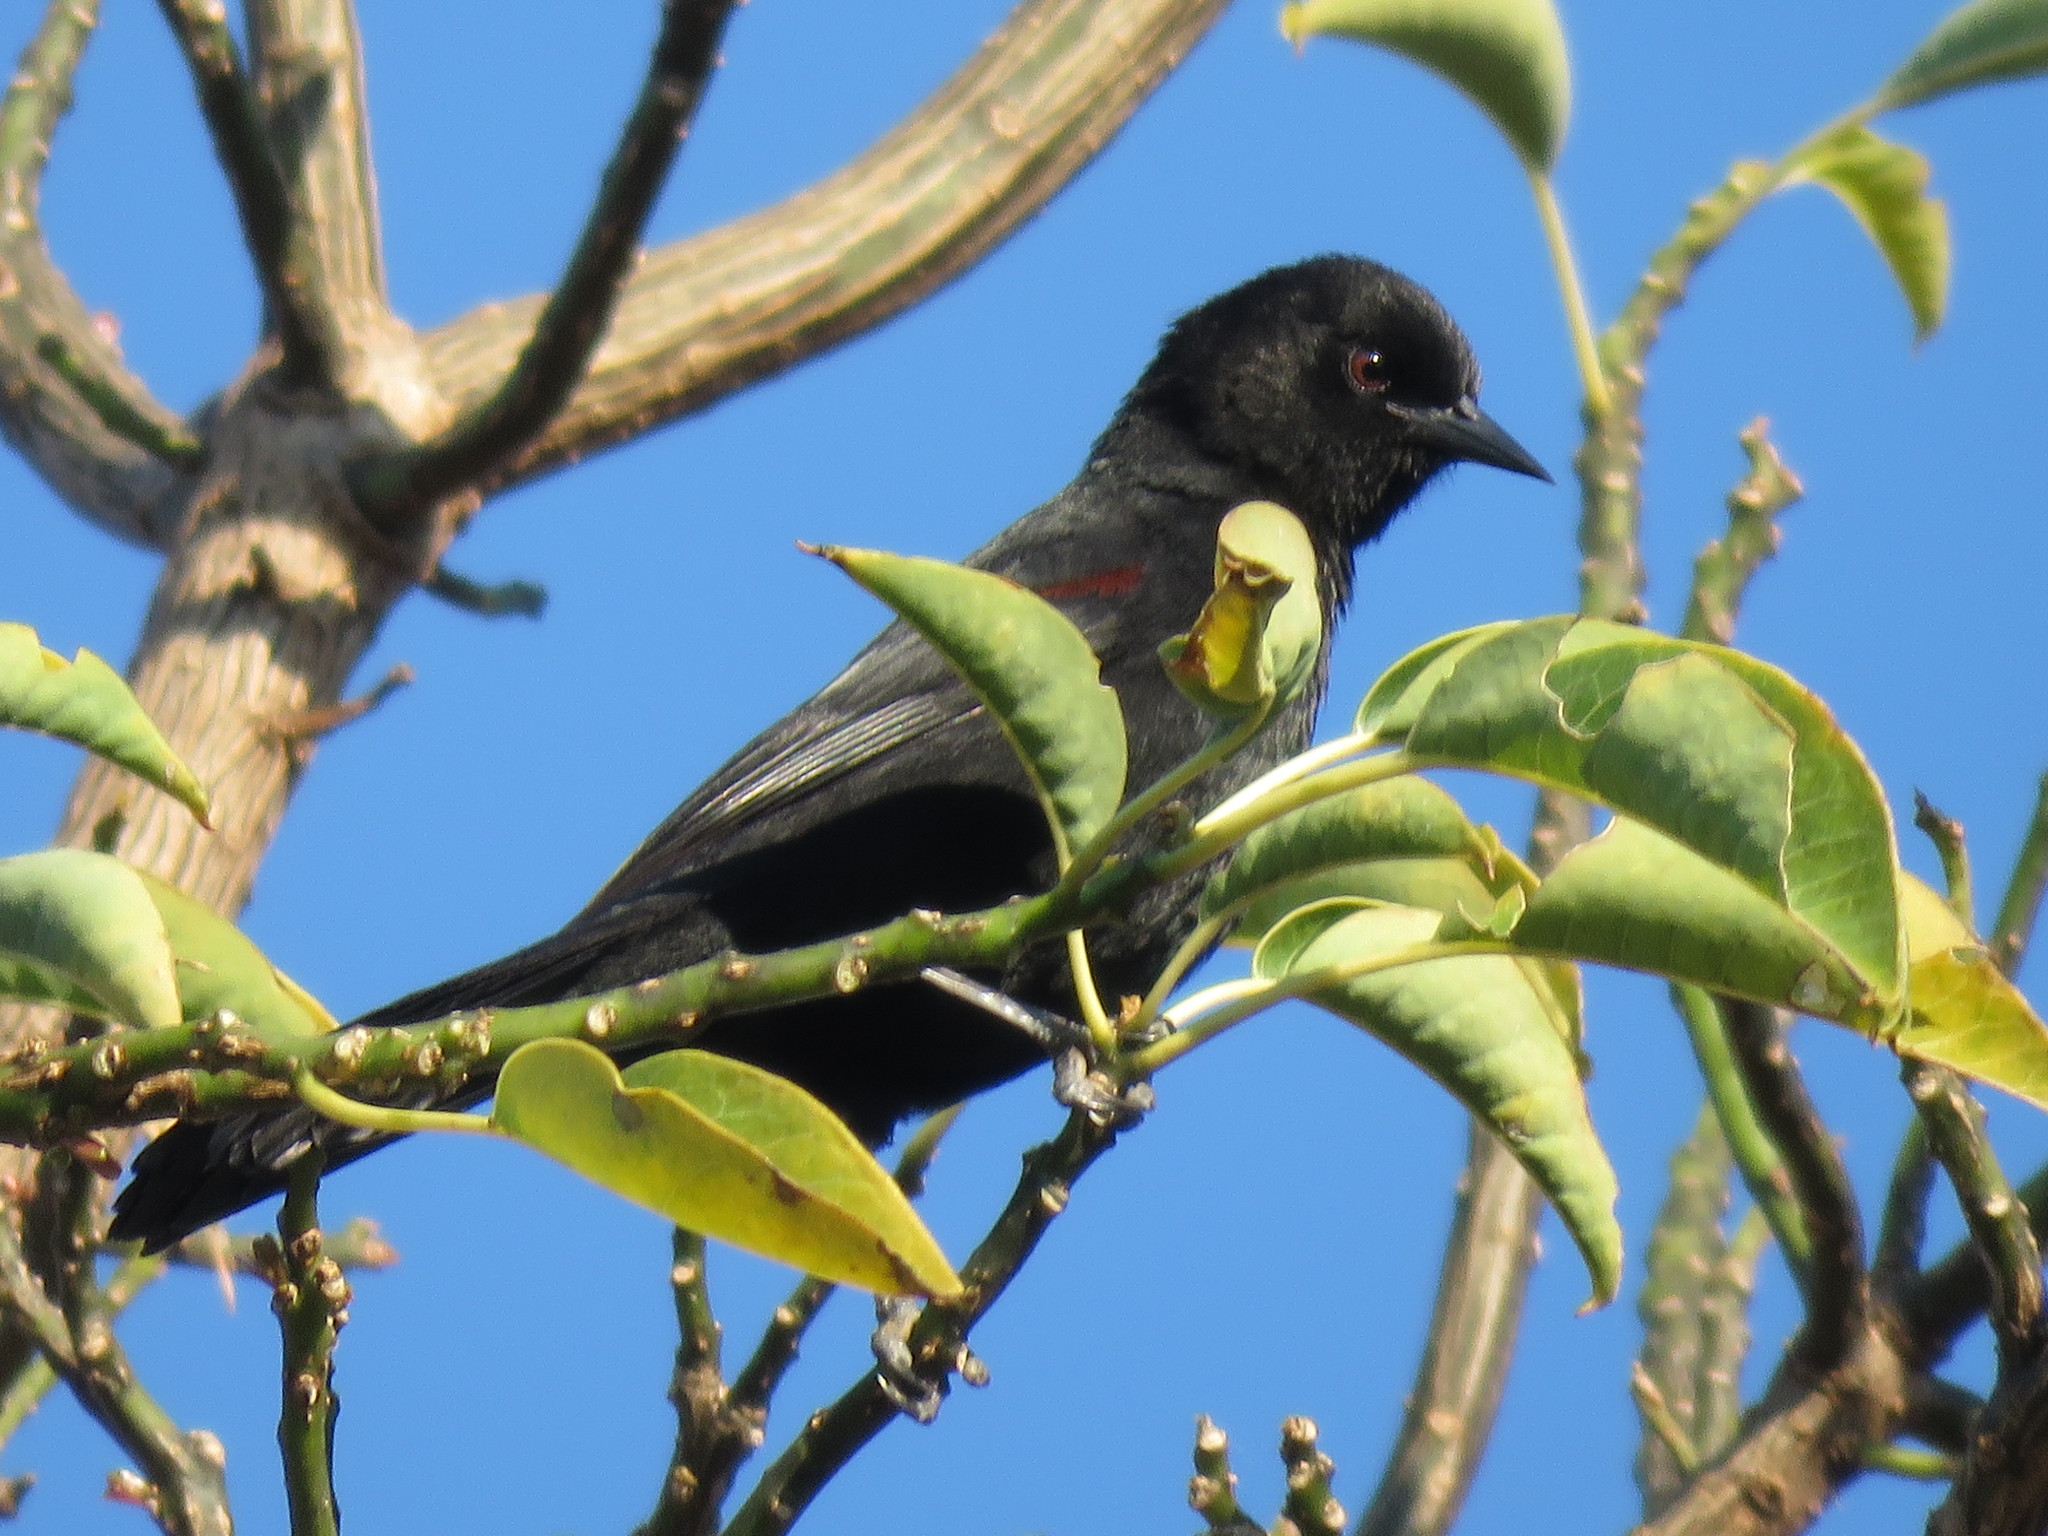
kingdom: Animalia
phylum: Chordata
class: Aves
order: Passeriformes
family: Icteridae
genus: Icterus
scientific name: Icterus cayanensis
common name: Epaulet oriole
